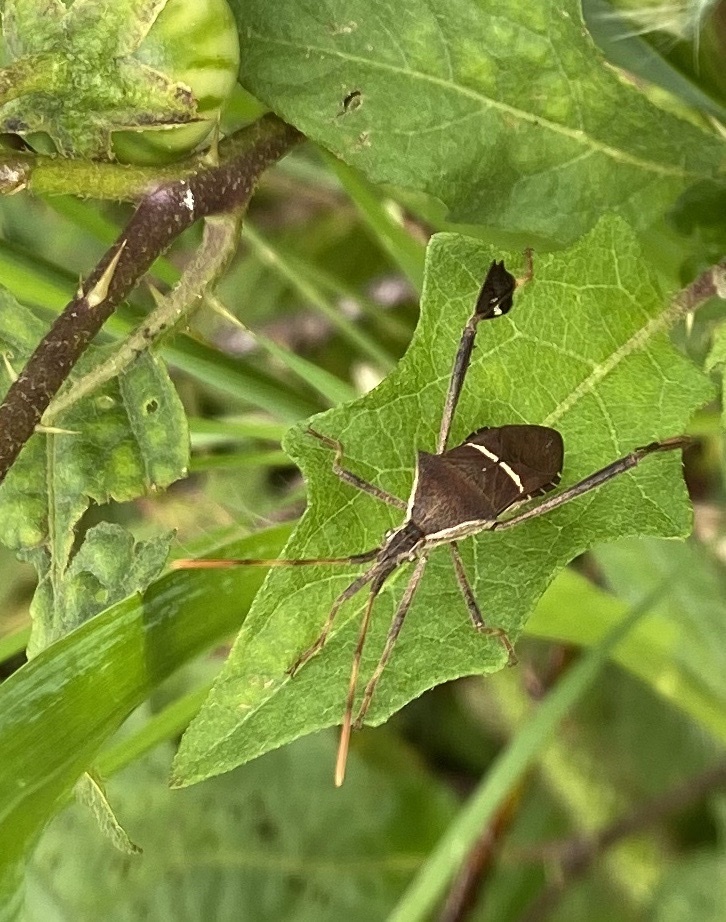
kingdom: Animalia
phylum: Arthropoda
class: Insecta
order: Hemiptera
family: Coreidae
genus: Leptoglossus
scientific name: Leptoglossus phyllopus
